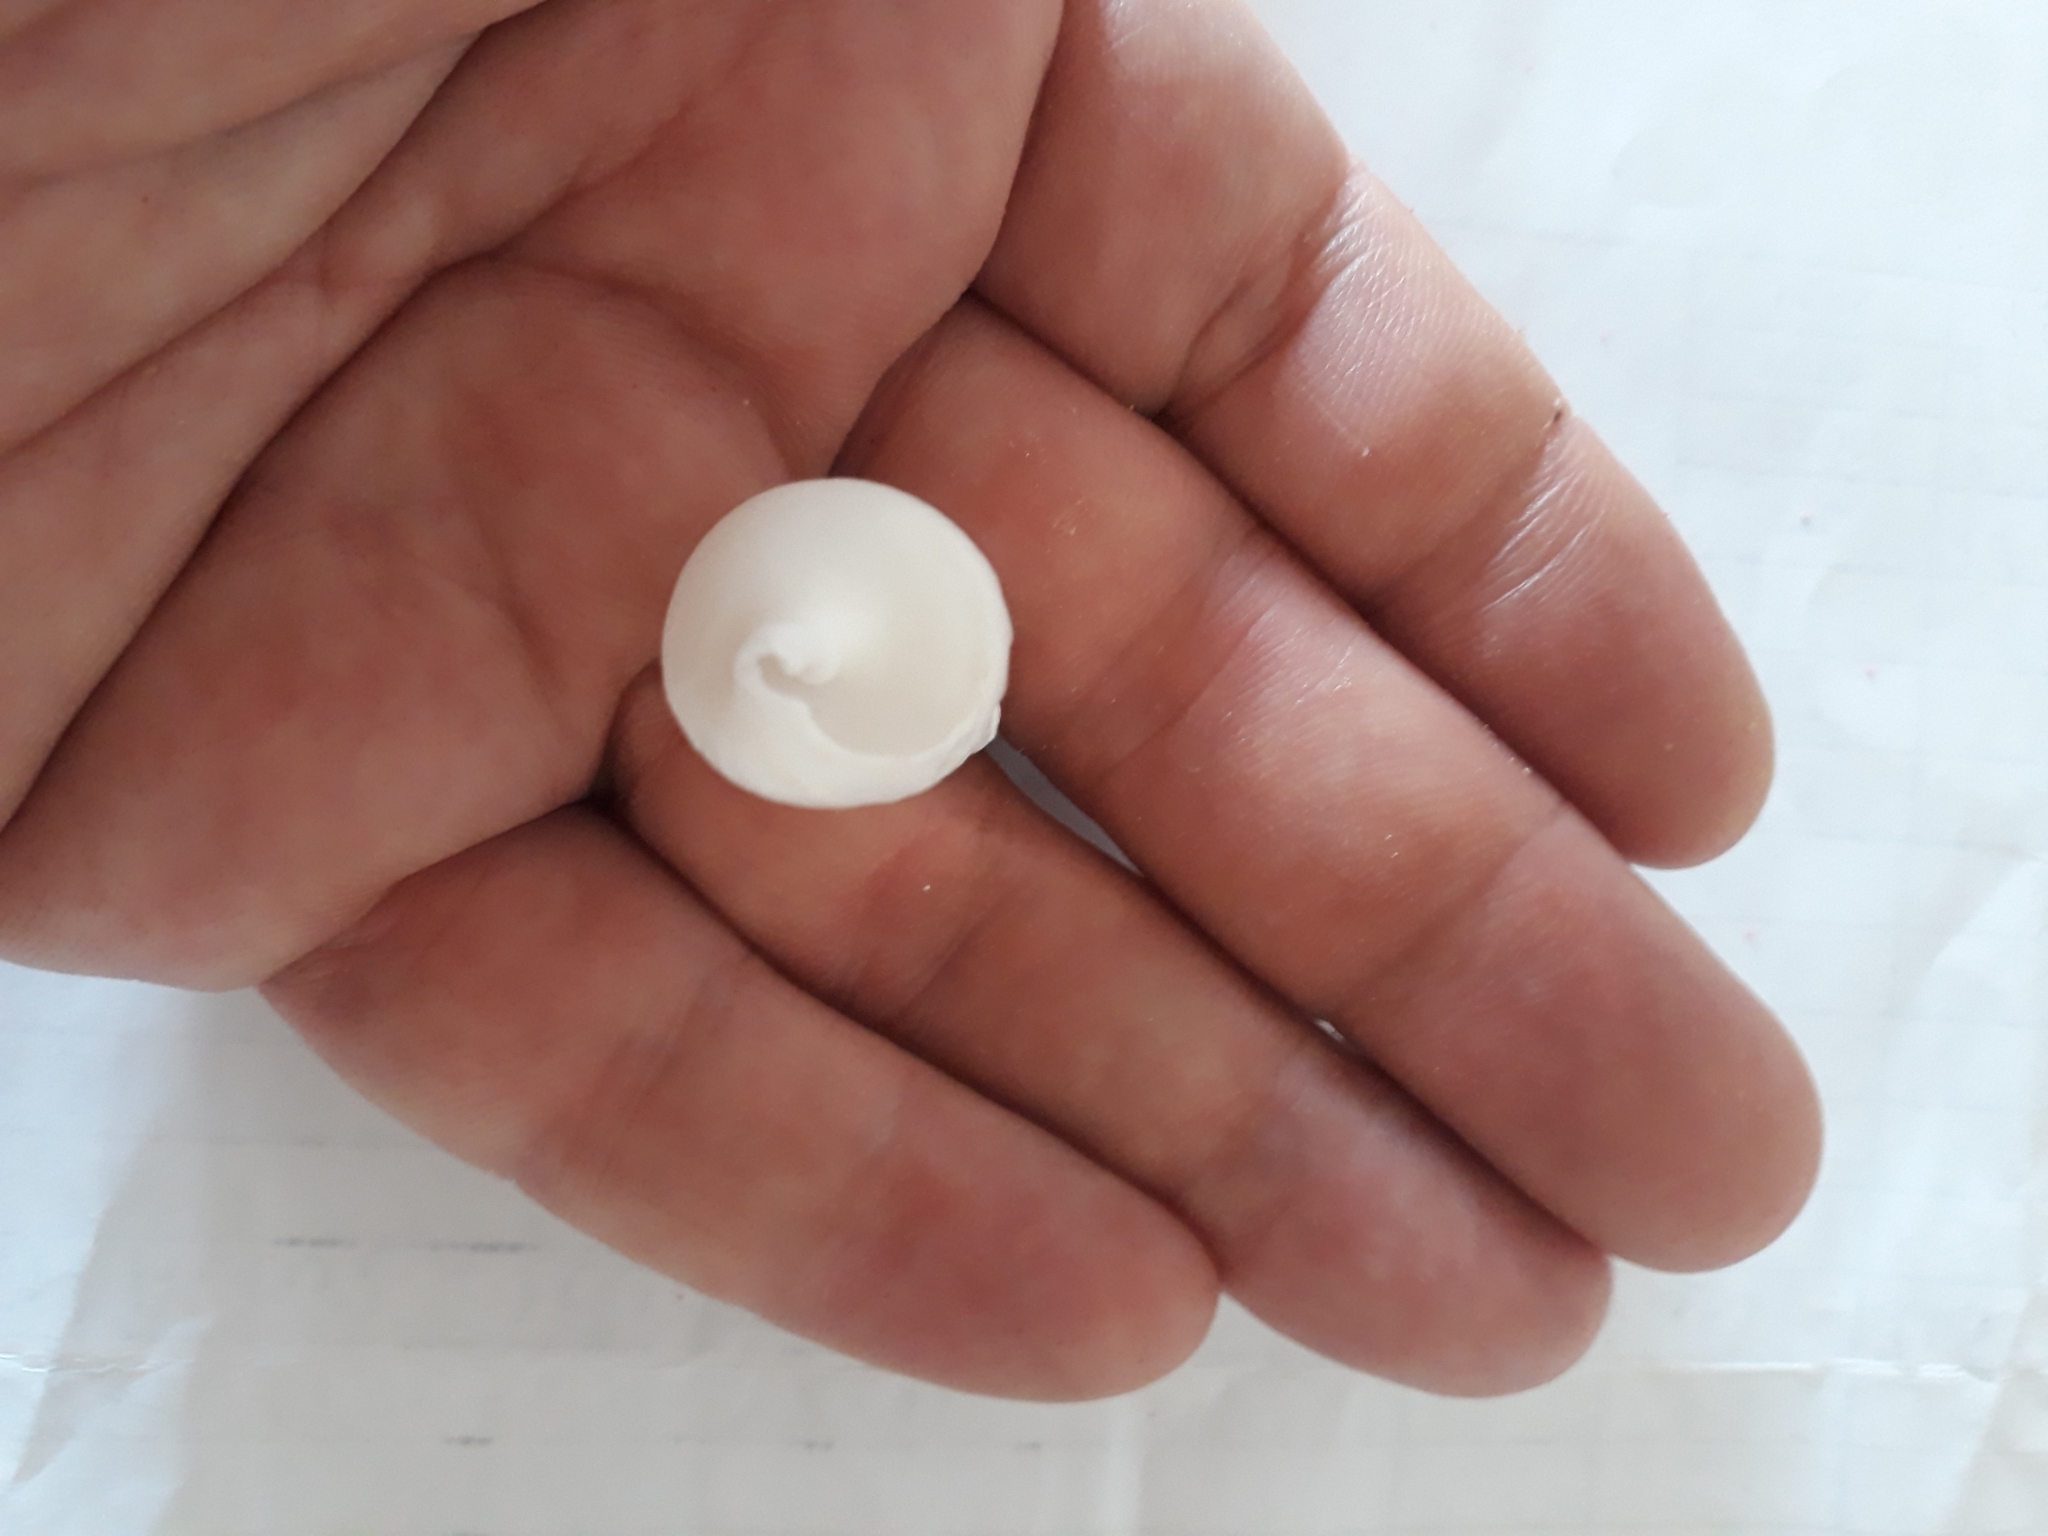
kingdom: Animalia
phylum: Mollusca
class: Gastropoda
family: Cerithiidae
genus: Rhinoclavis
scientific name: Rhinoclavis vertagus
